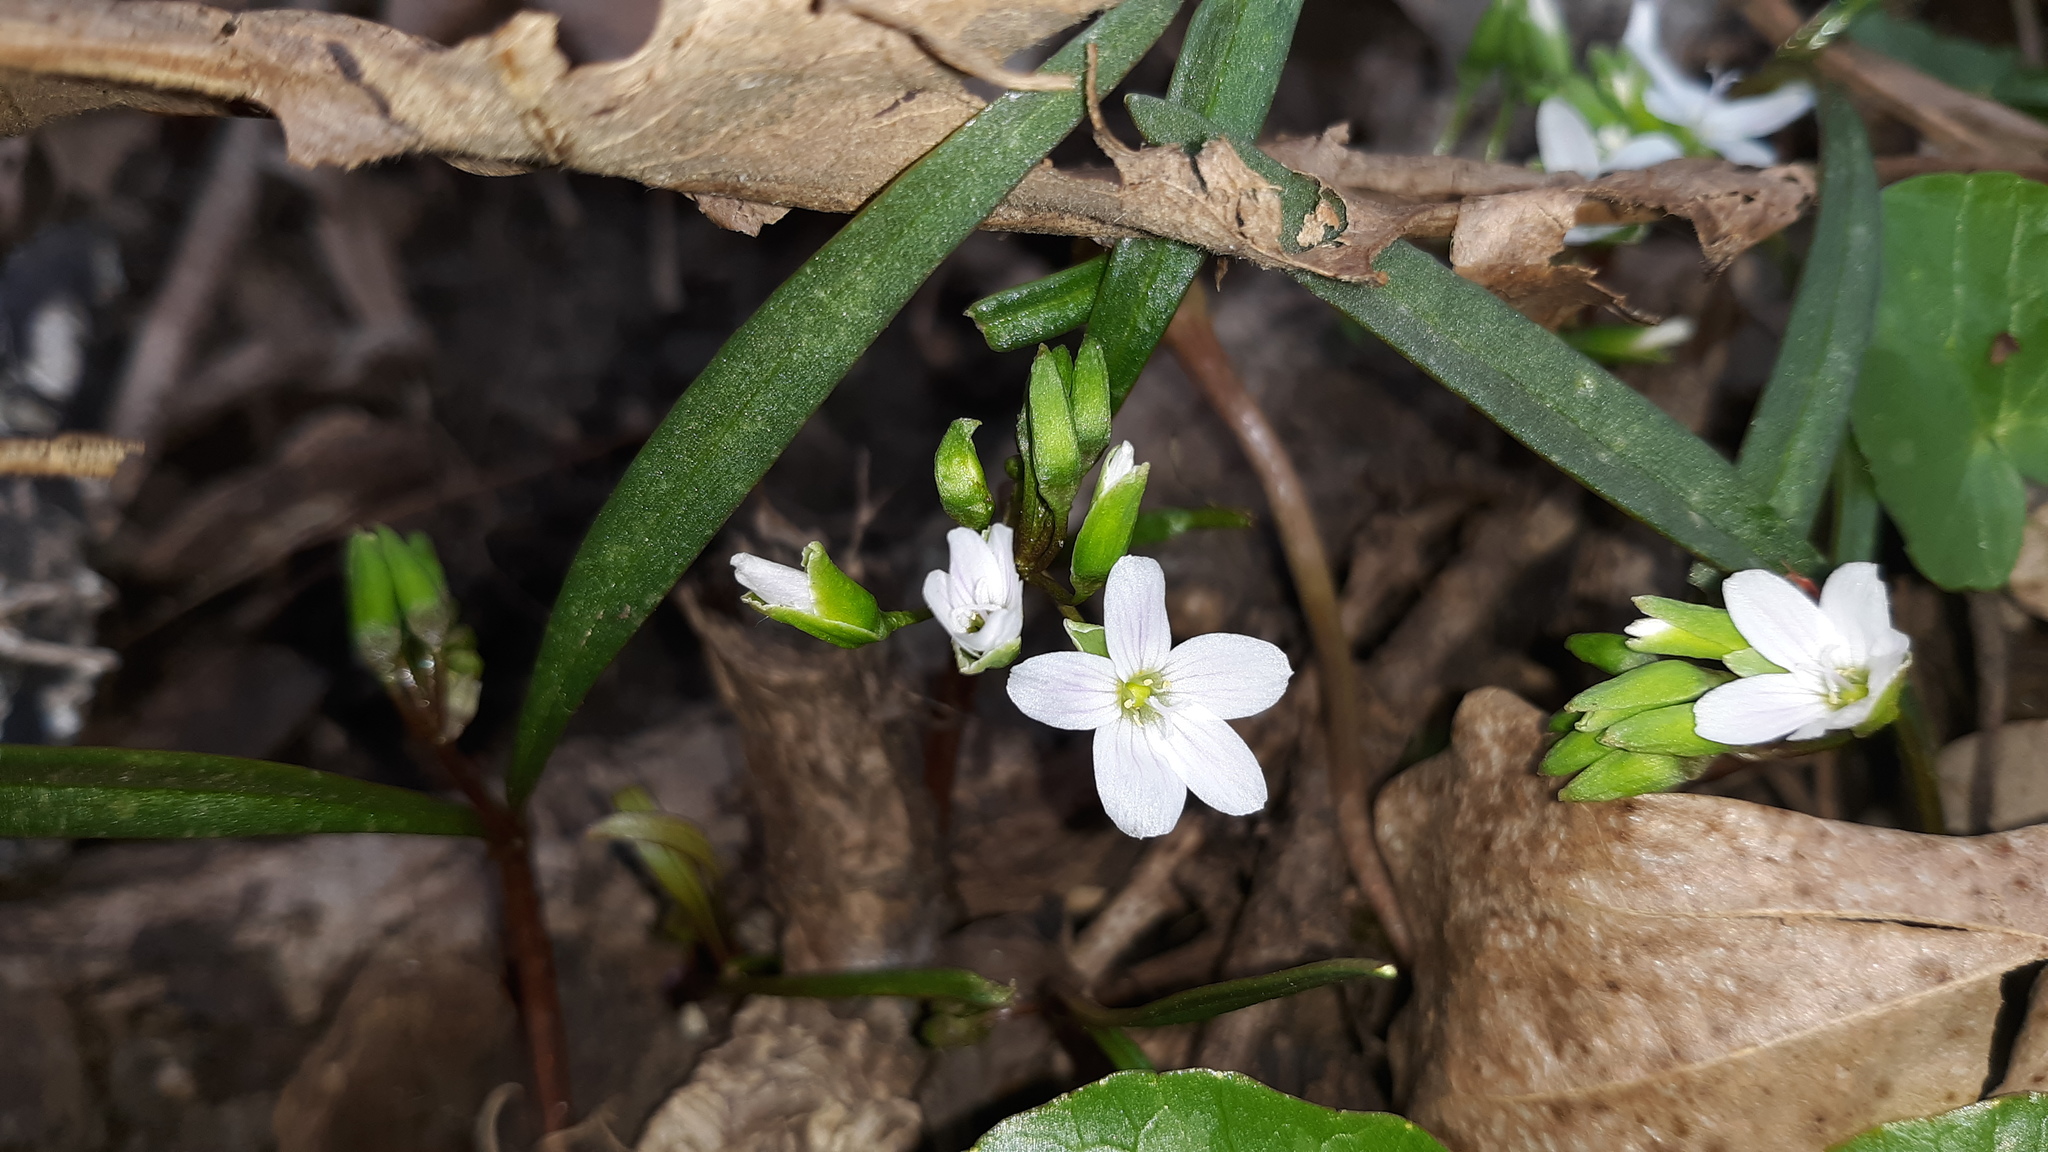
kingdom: Plantae
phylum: Tracheophyta
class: Magnoliopsida
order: Caryophyllales
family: Montiaceae
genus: Claytonia
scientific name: Claytonia virginica
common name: Virginia springbeauty
